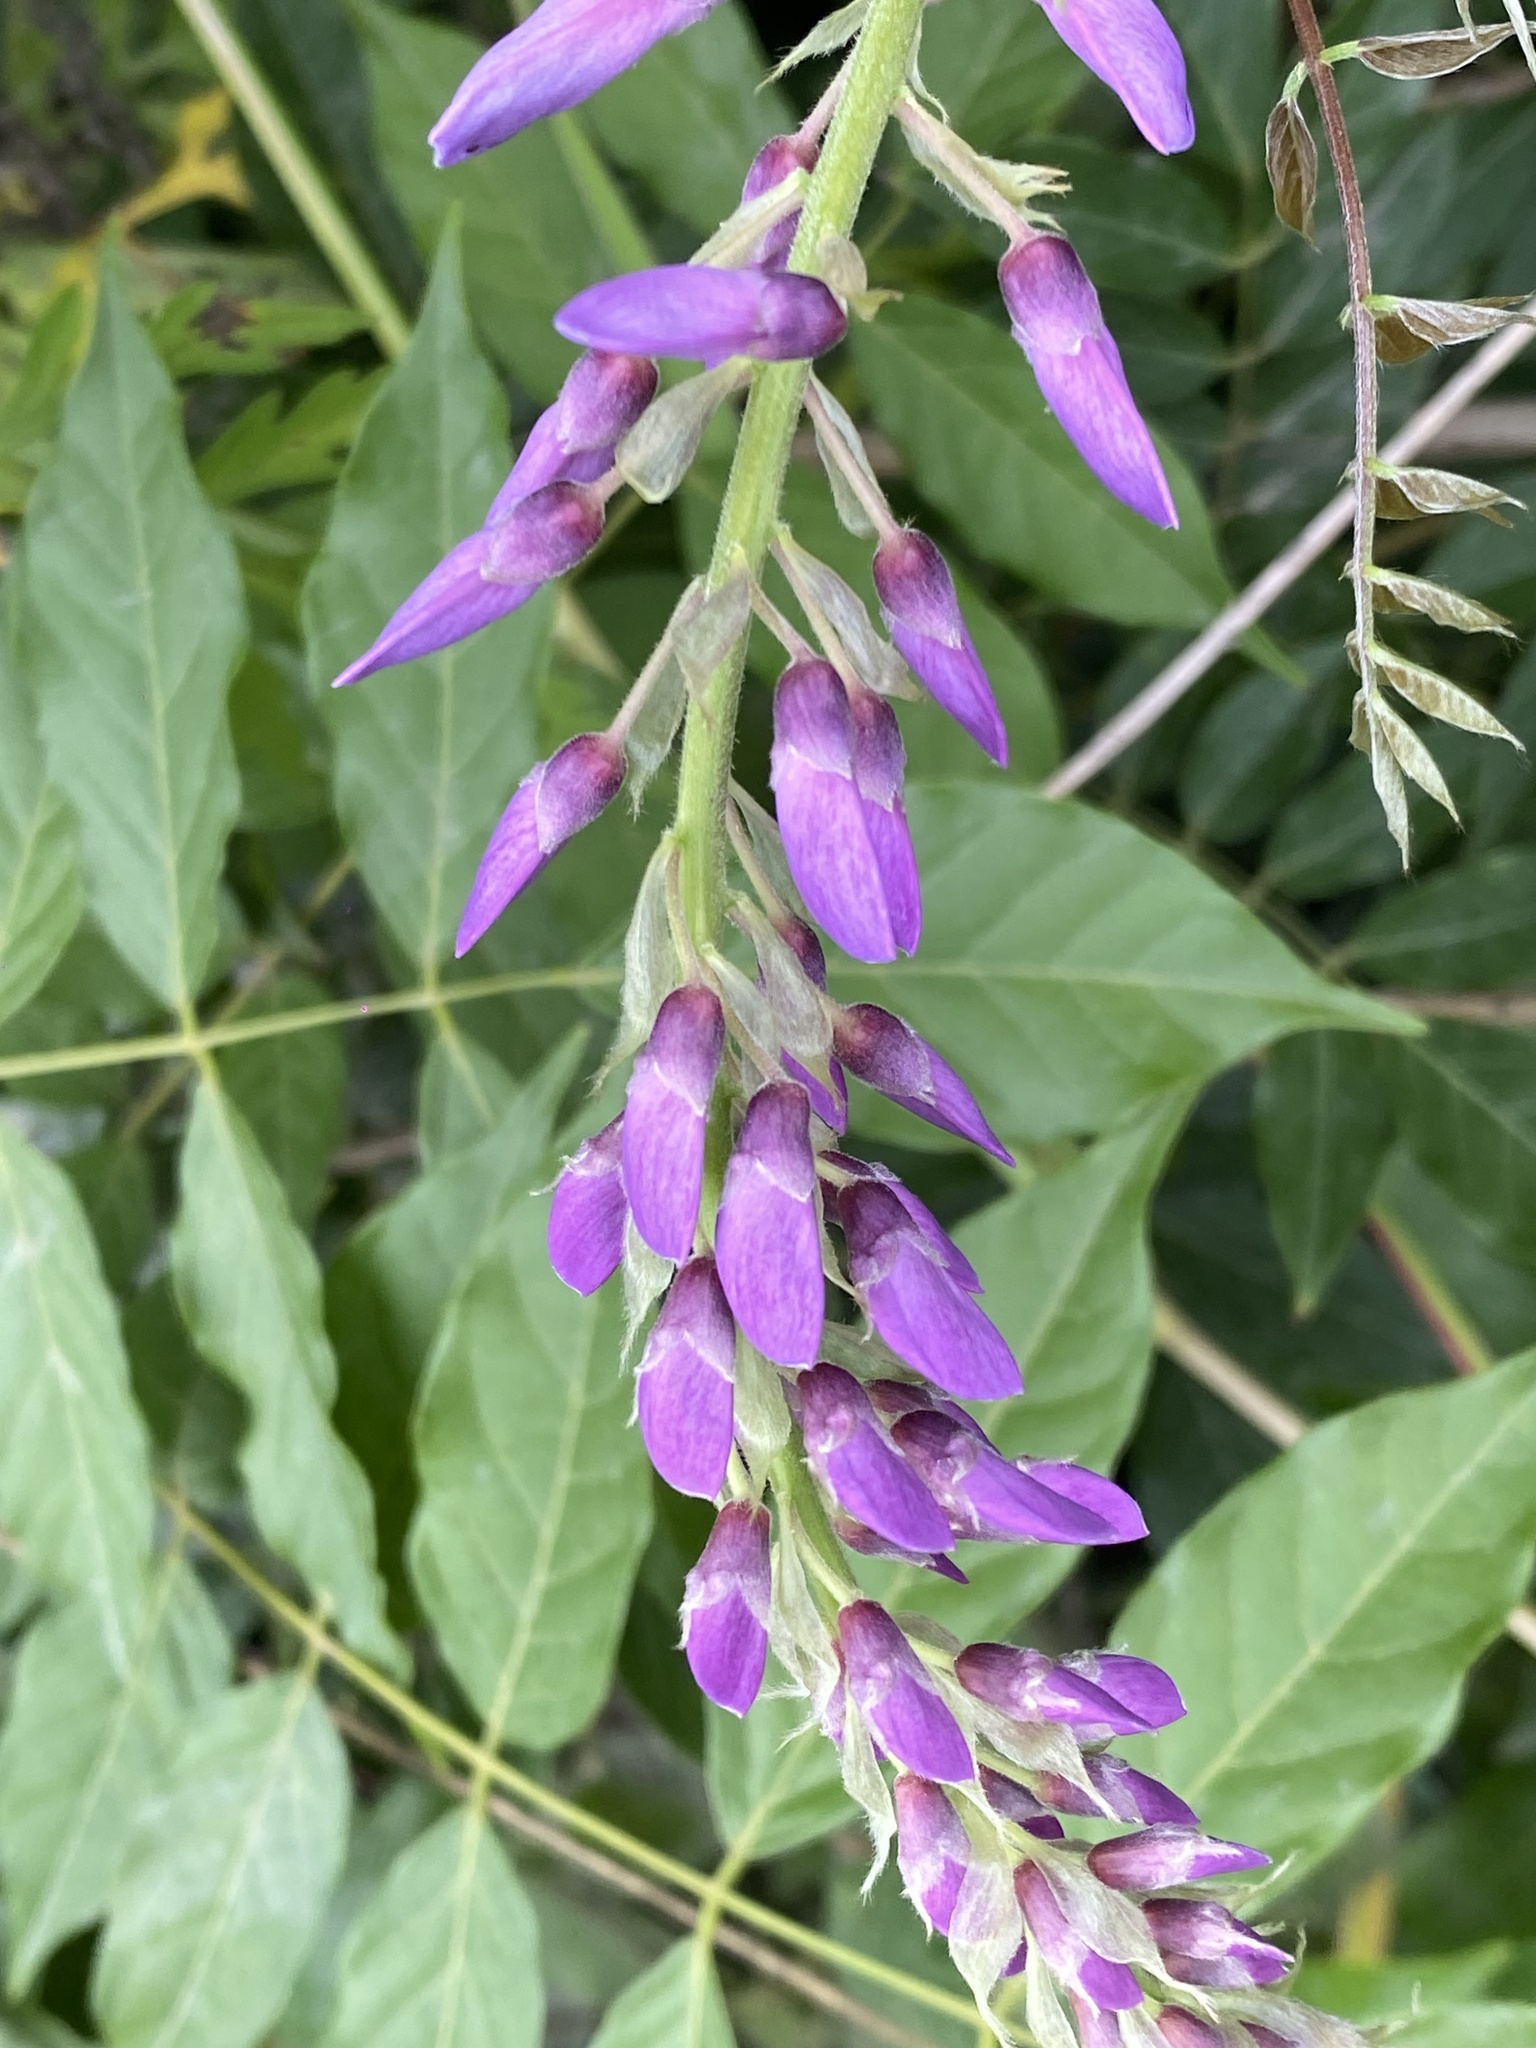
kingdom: Plantae
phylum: Tracheophyta
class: Magnoliopsida
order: Fabales
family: Fabaceae
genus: Wisteria
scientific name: Wisteria sinensis
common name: Chinese wisteria
